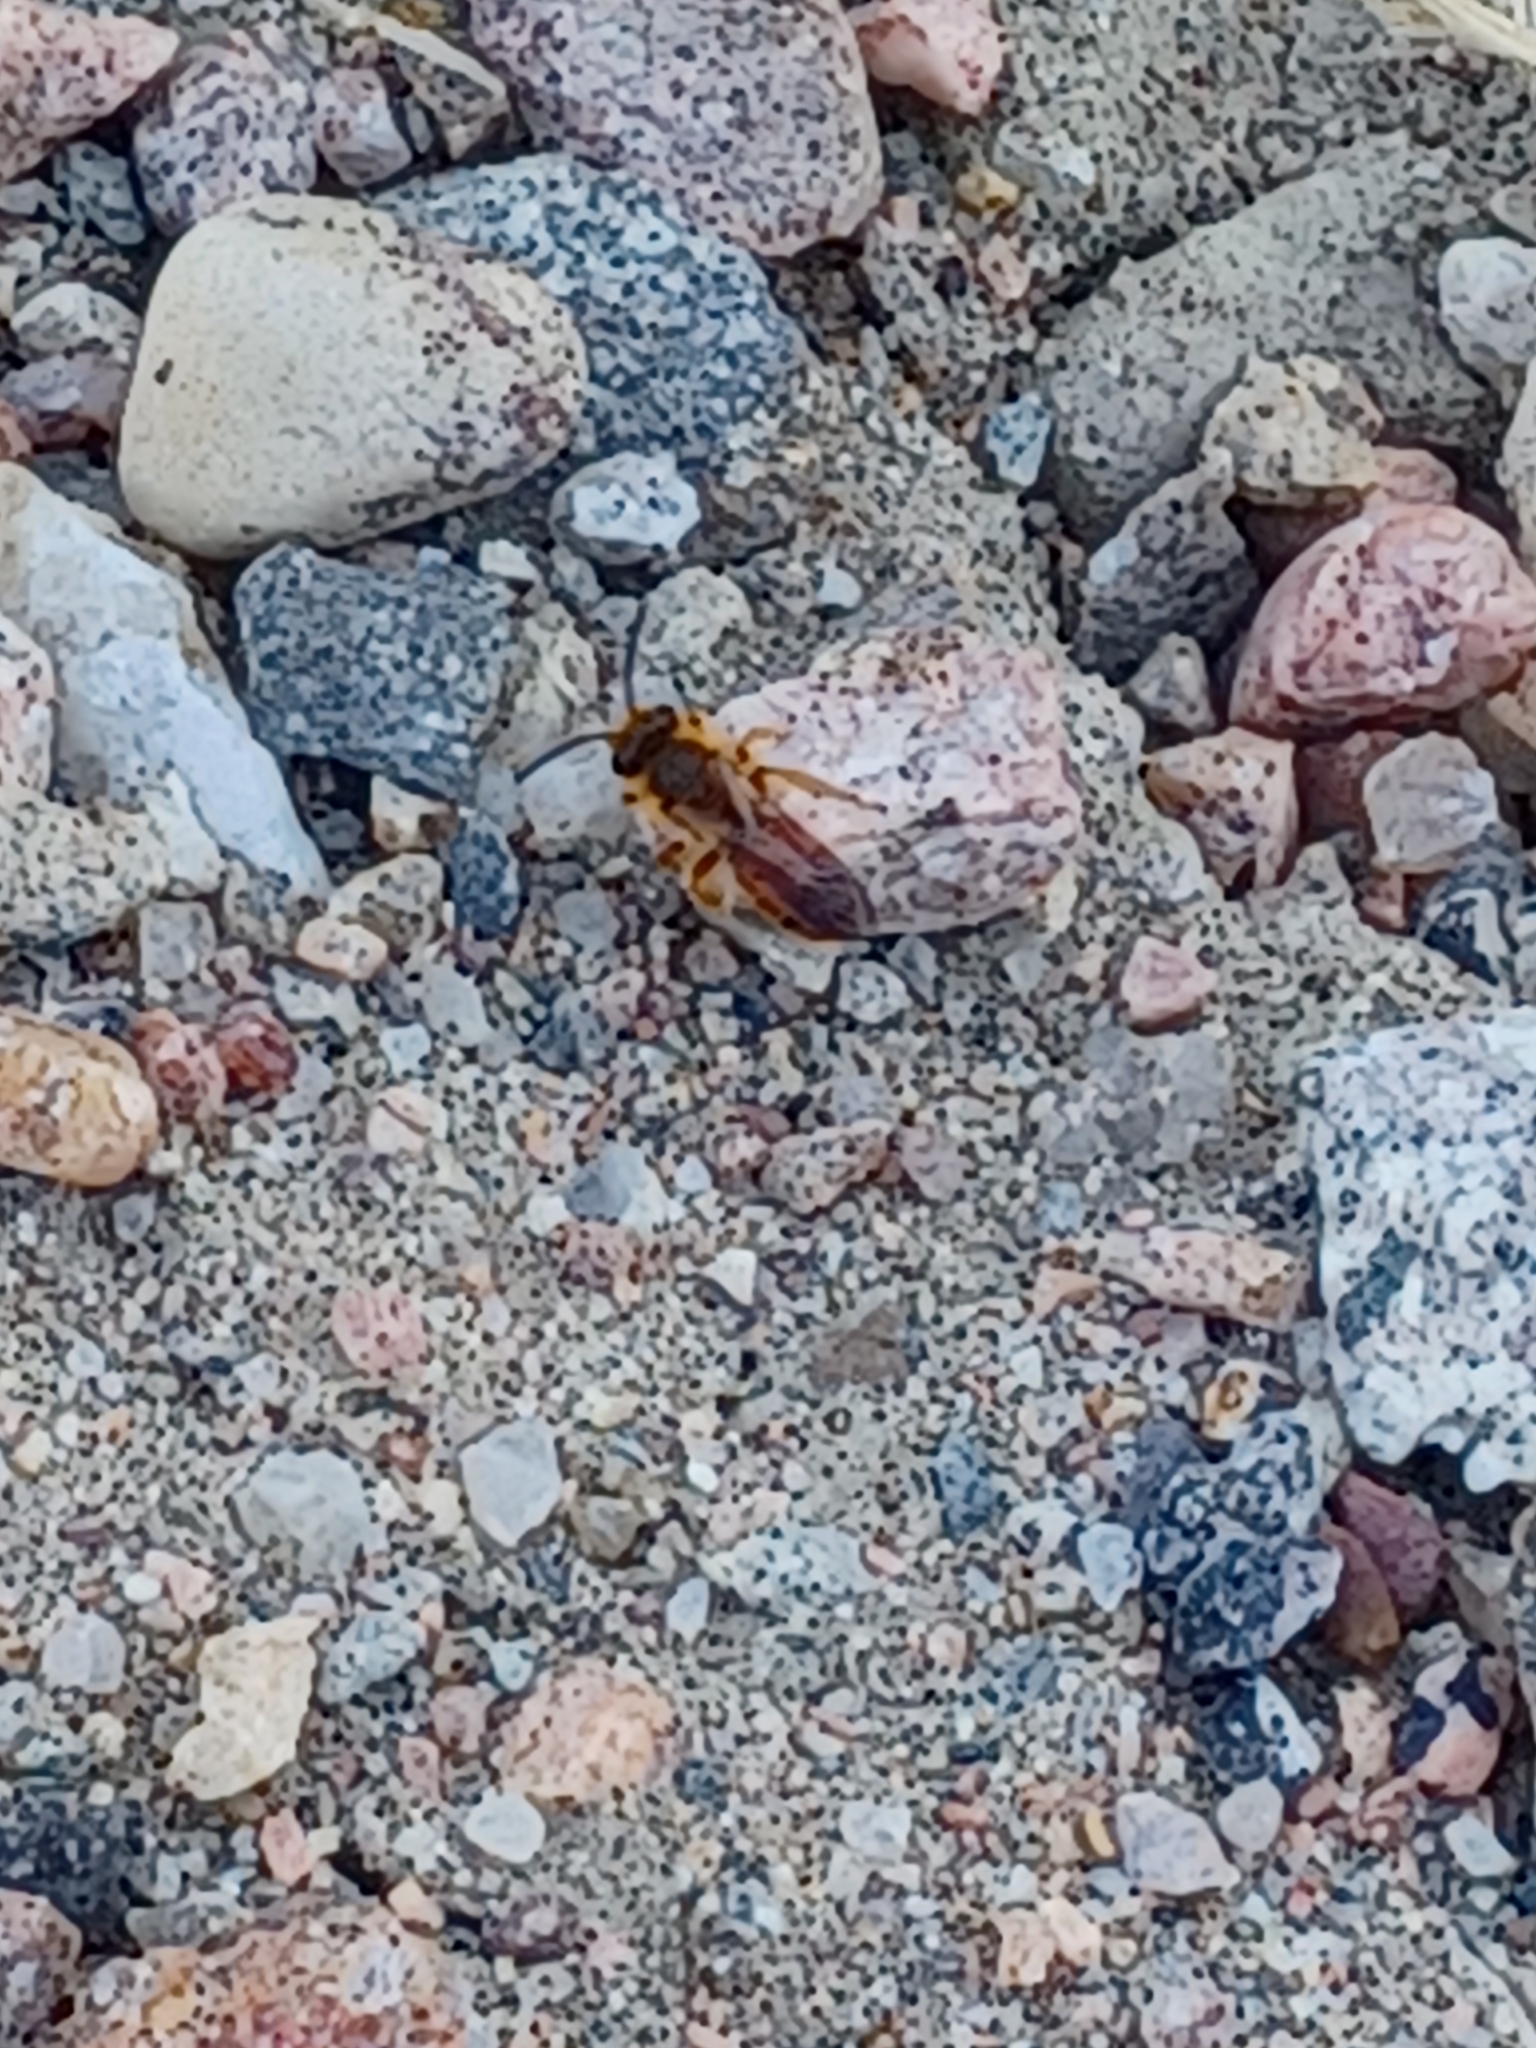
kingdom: Animalia
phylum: Arthropoda
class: Insecta
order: Hymenoptera
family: Andrenidae
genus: Andrena
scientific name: Andrena prunorum
